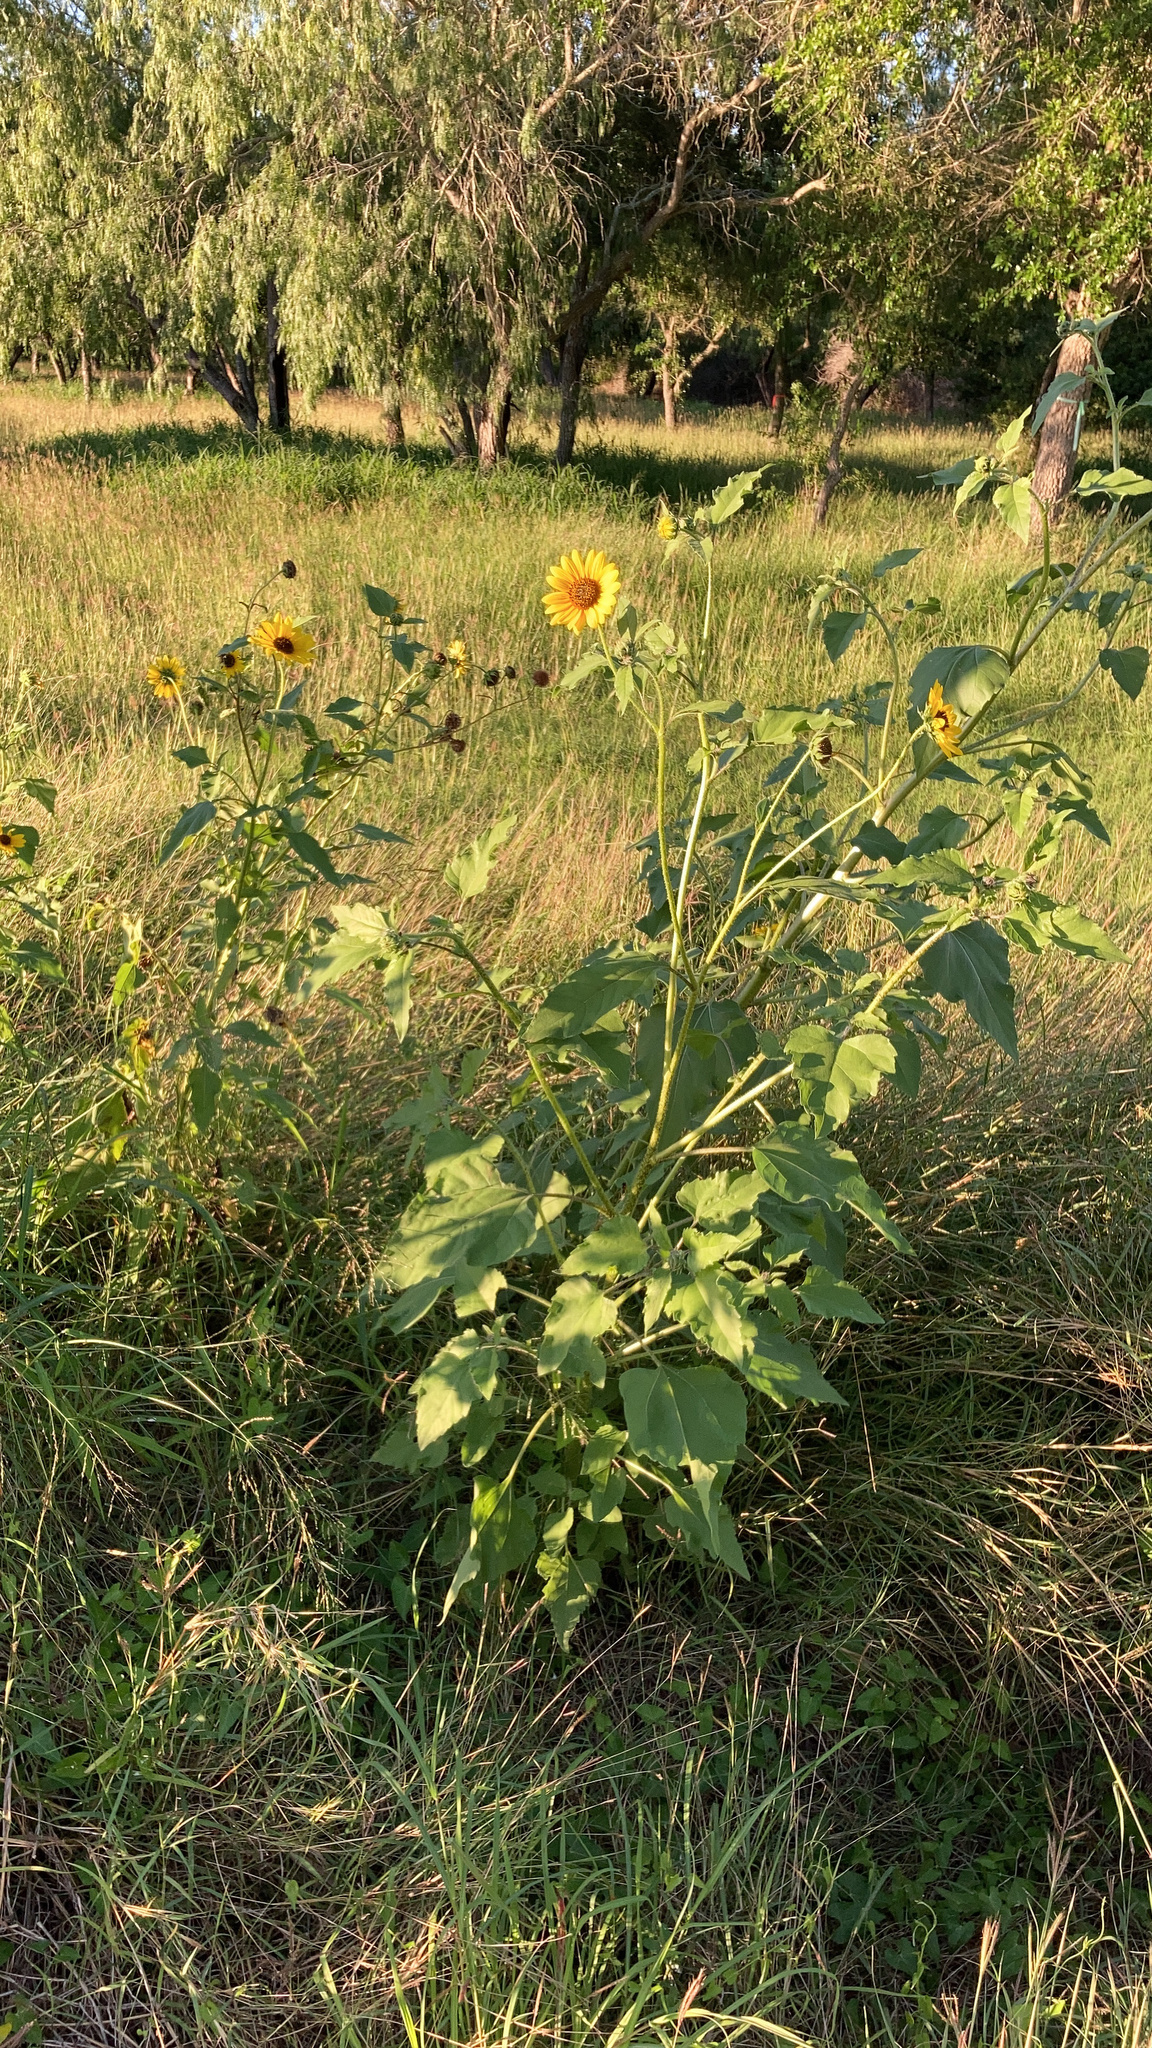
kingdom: Plantae
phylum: Tracheophyta
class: Magnoliopsida
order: Asterales
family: Asteraceae
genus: Helianthus
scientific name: Helianthus annuus
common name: Sunflower
